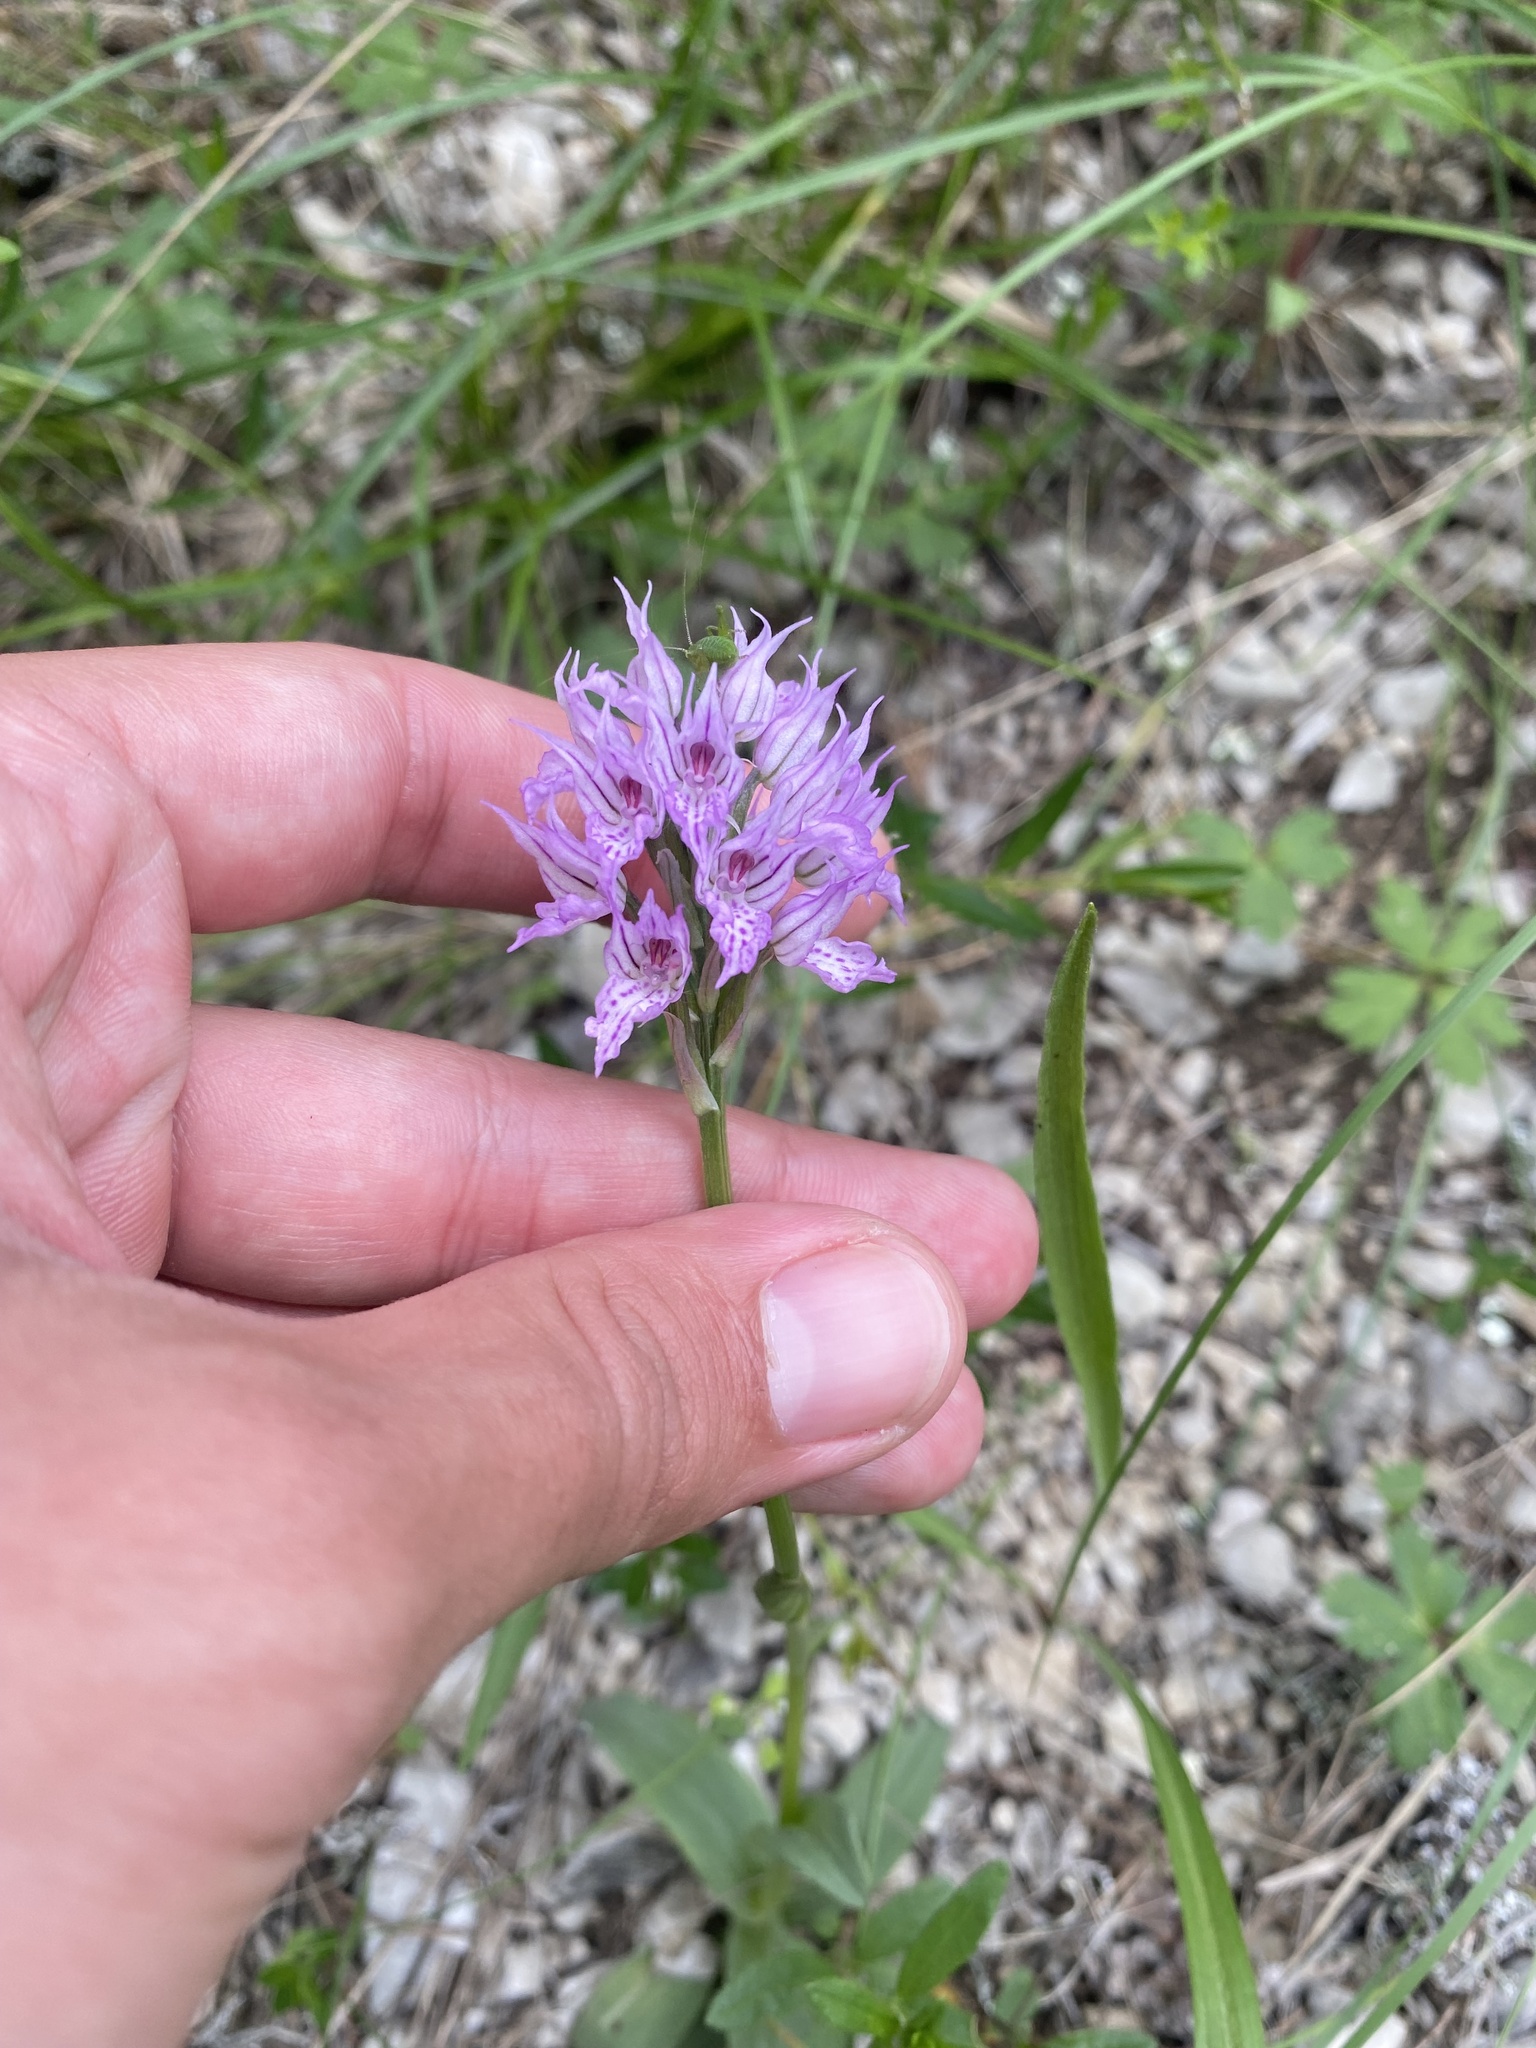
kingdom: Plantae
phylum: Tracheophyta
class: Liliopsida
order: Asparagales
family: Orchidaceae
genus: Neotinea
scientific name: Neotinea tridentata
